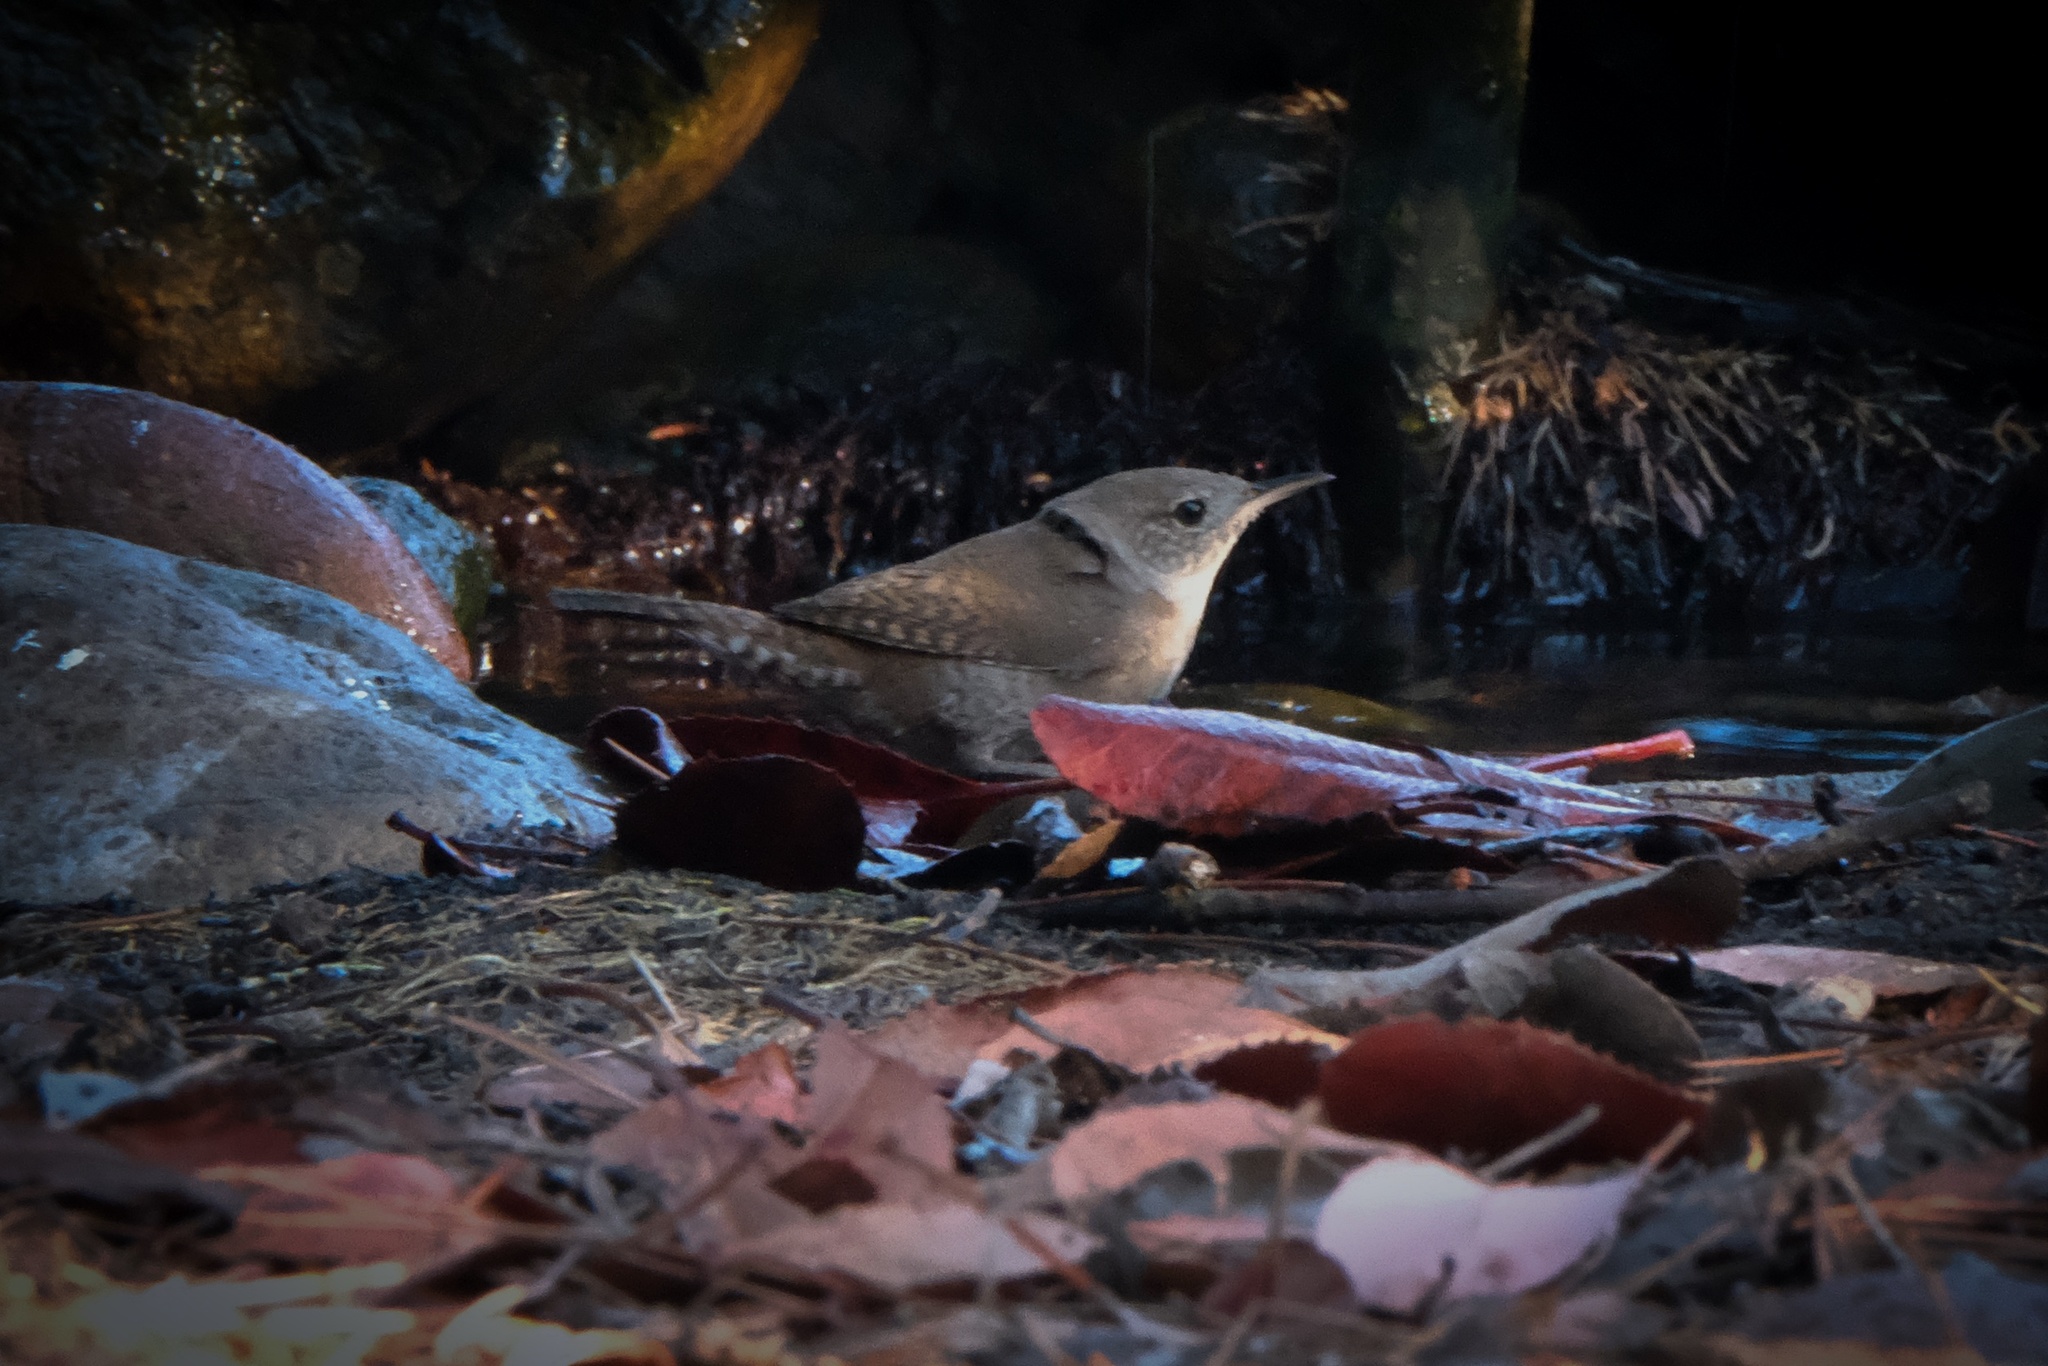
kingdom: Animalia
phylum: Chordata
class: Aves
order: Passeriformes
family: Troglodytidae
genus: Troglodytes
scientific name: Troglodytes aedon
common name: House wren
